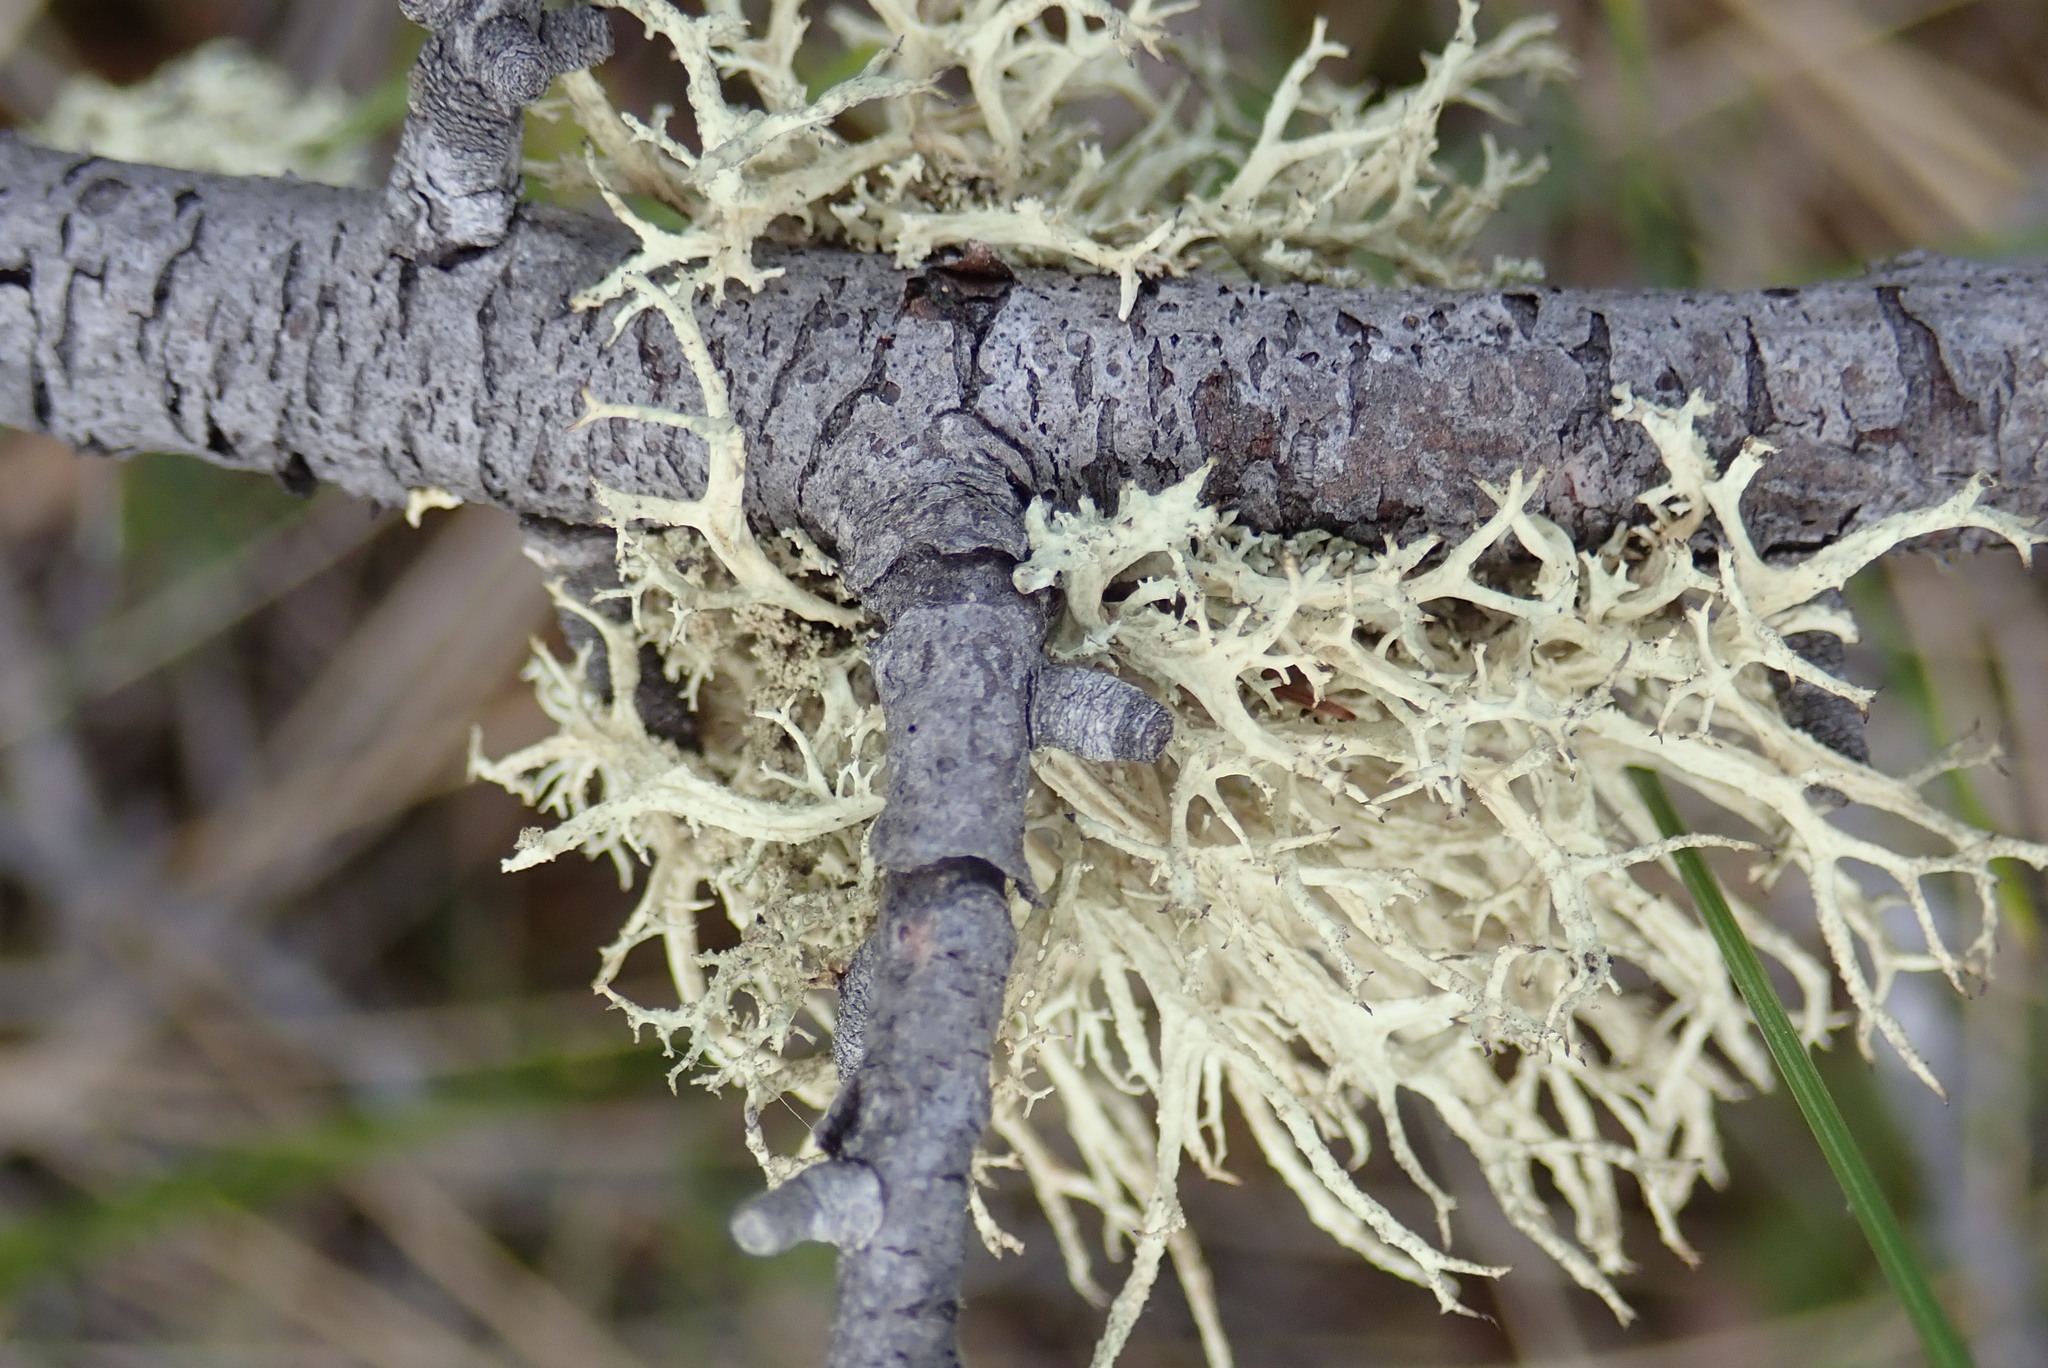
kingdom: Fungi
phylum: Ascomycota
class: Lecanoromycetes
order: Lecanorales
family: Parmeliaceae
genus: Evernia
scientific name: Evernia mesomorpha
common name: Boreal oak moss lichen
